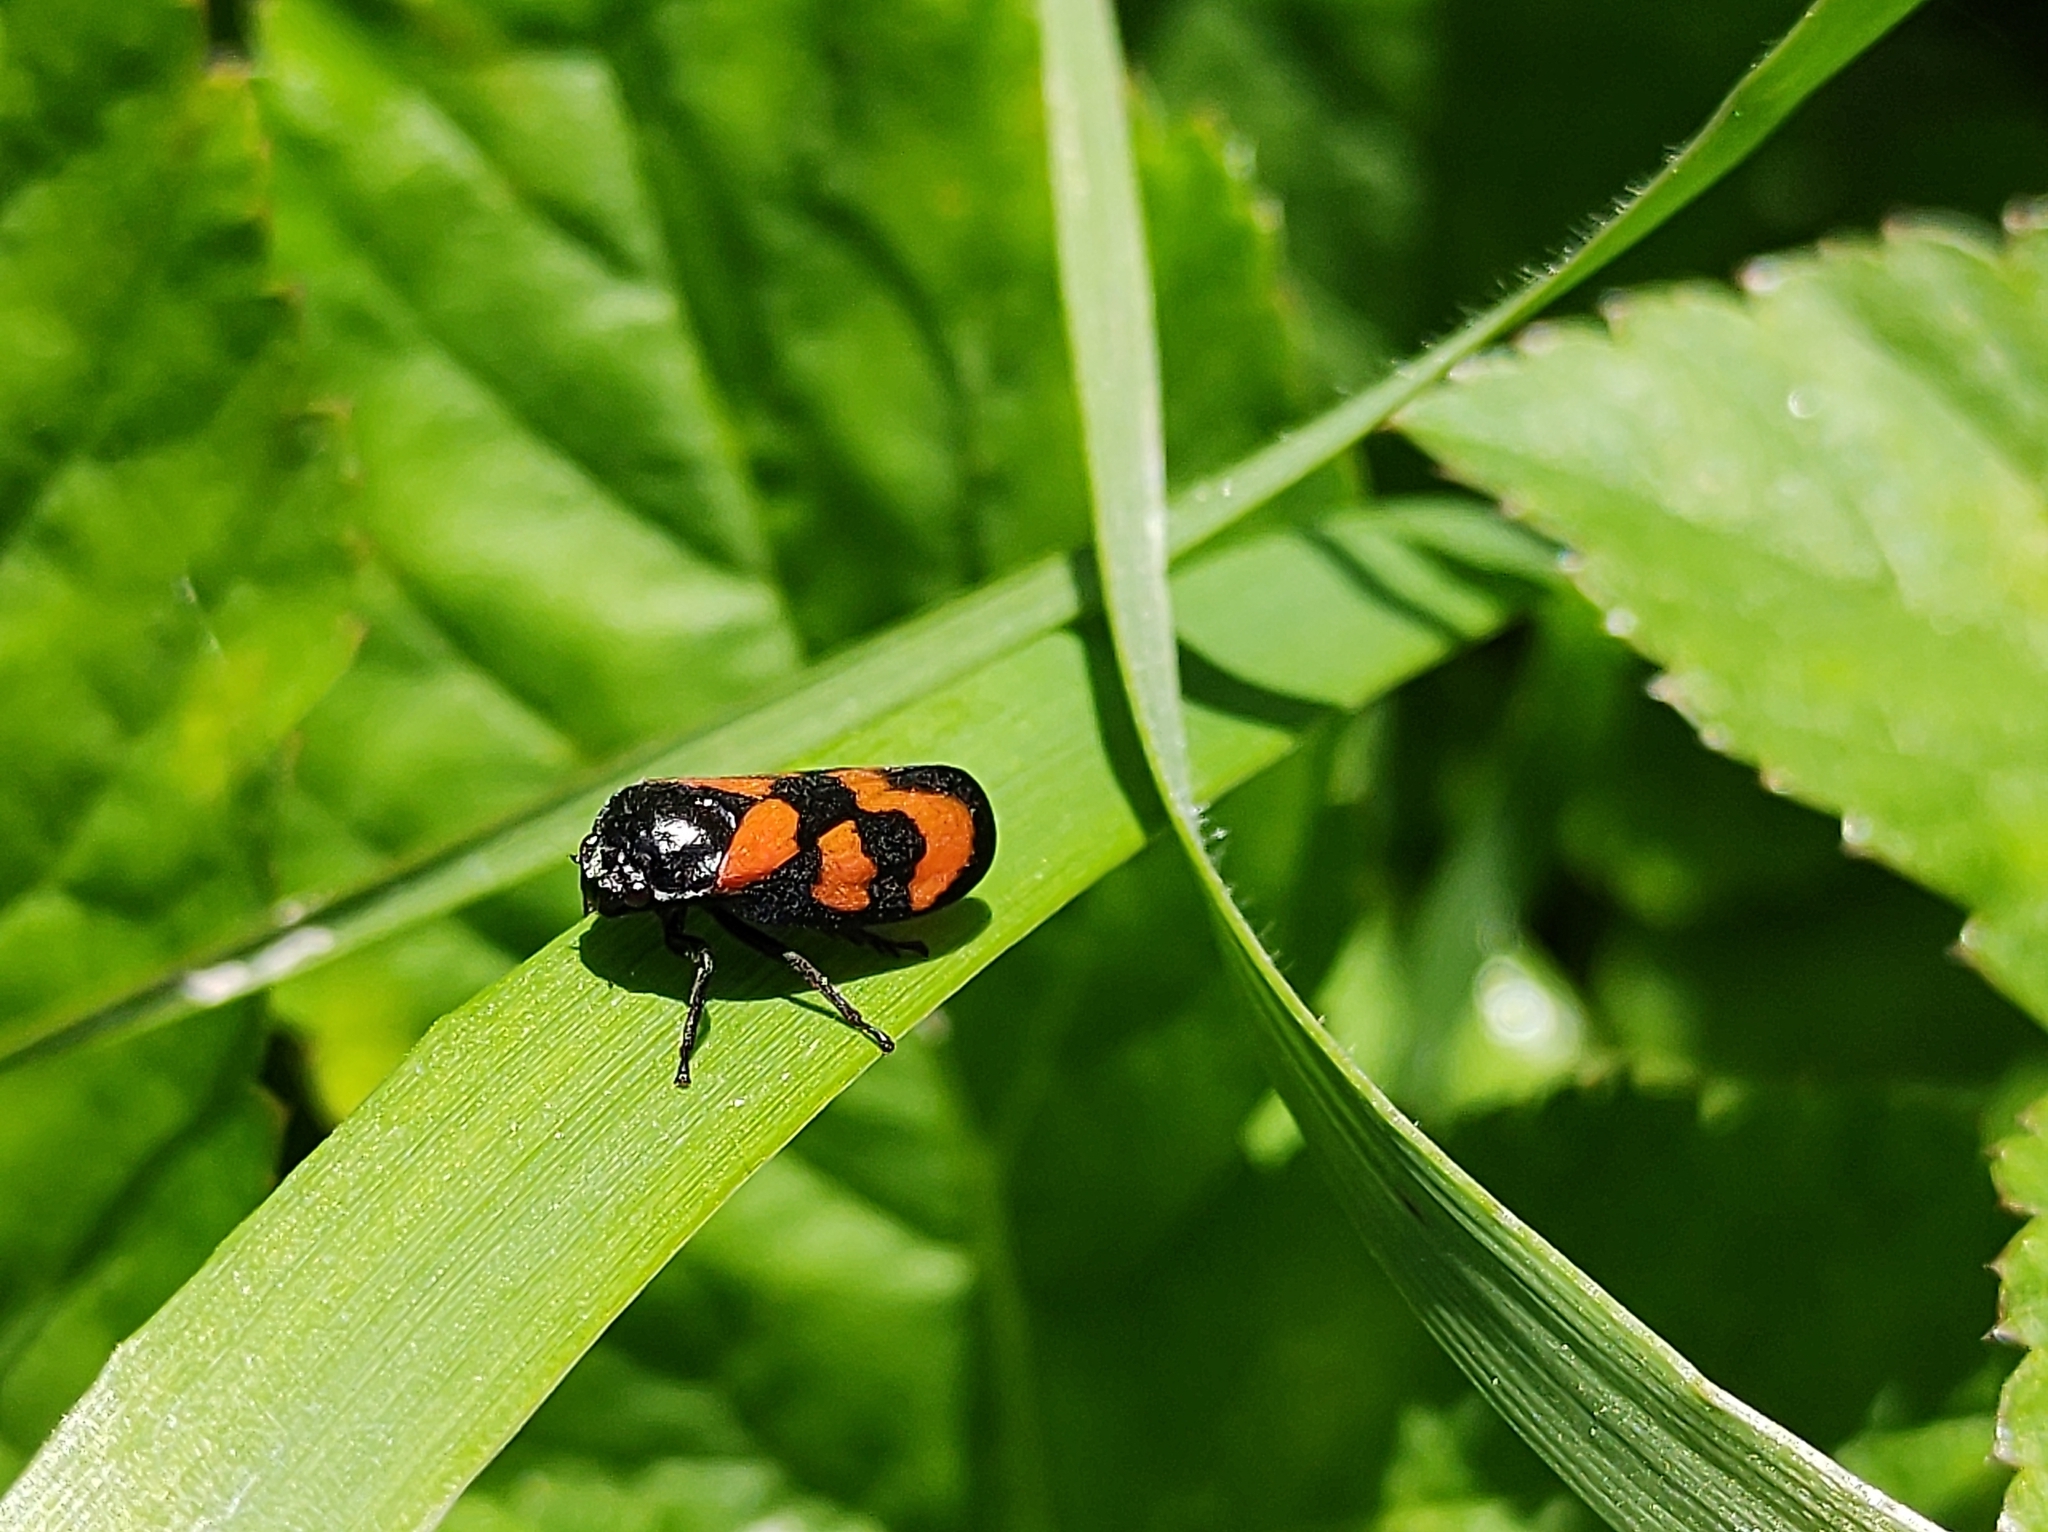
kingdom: Animalia
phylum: Arthropoda
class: Insecta
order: Hemiptera
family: Cercopidae
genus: Cercopis
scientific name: Cercopis vulnerata
